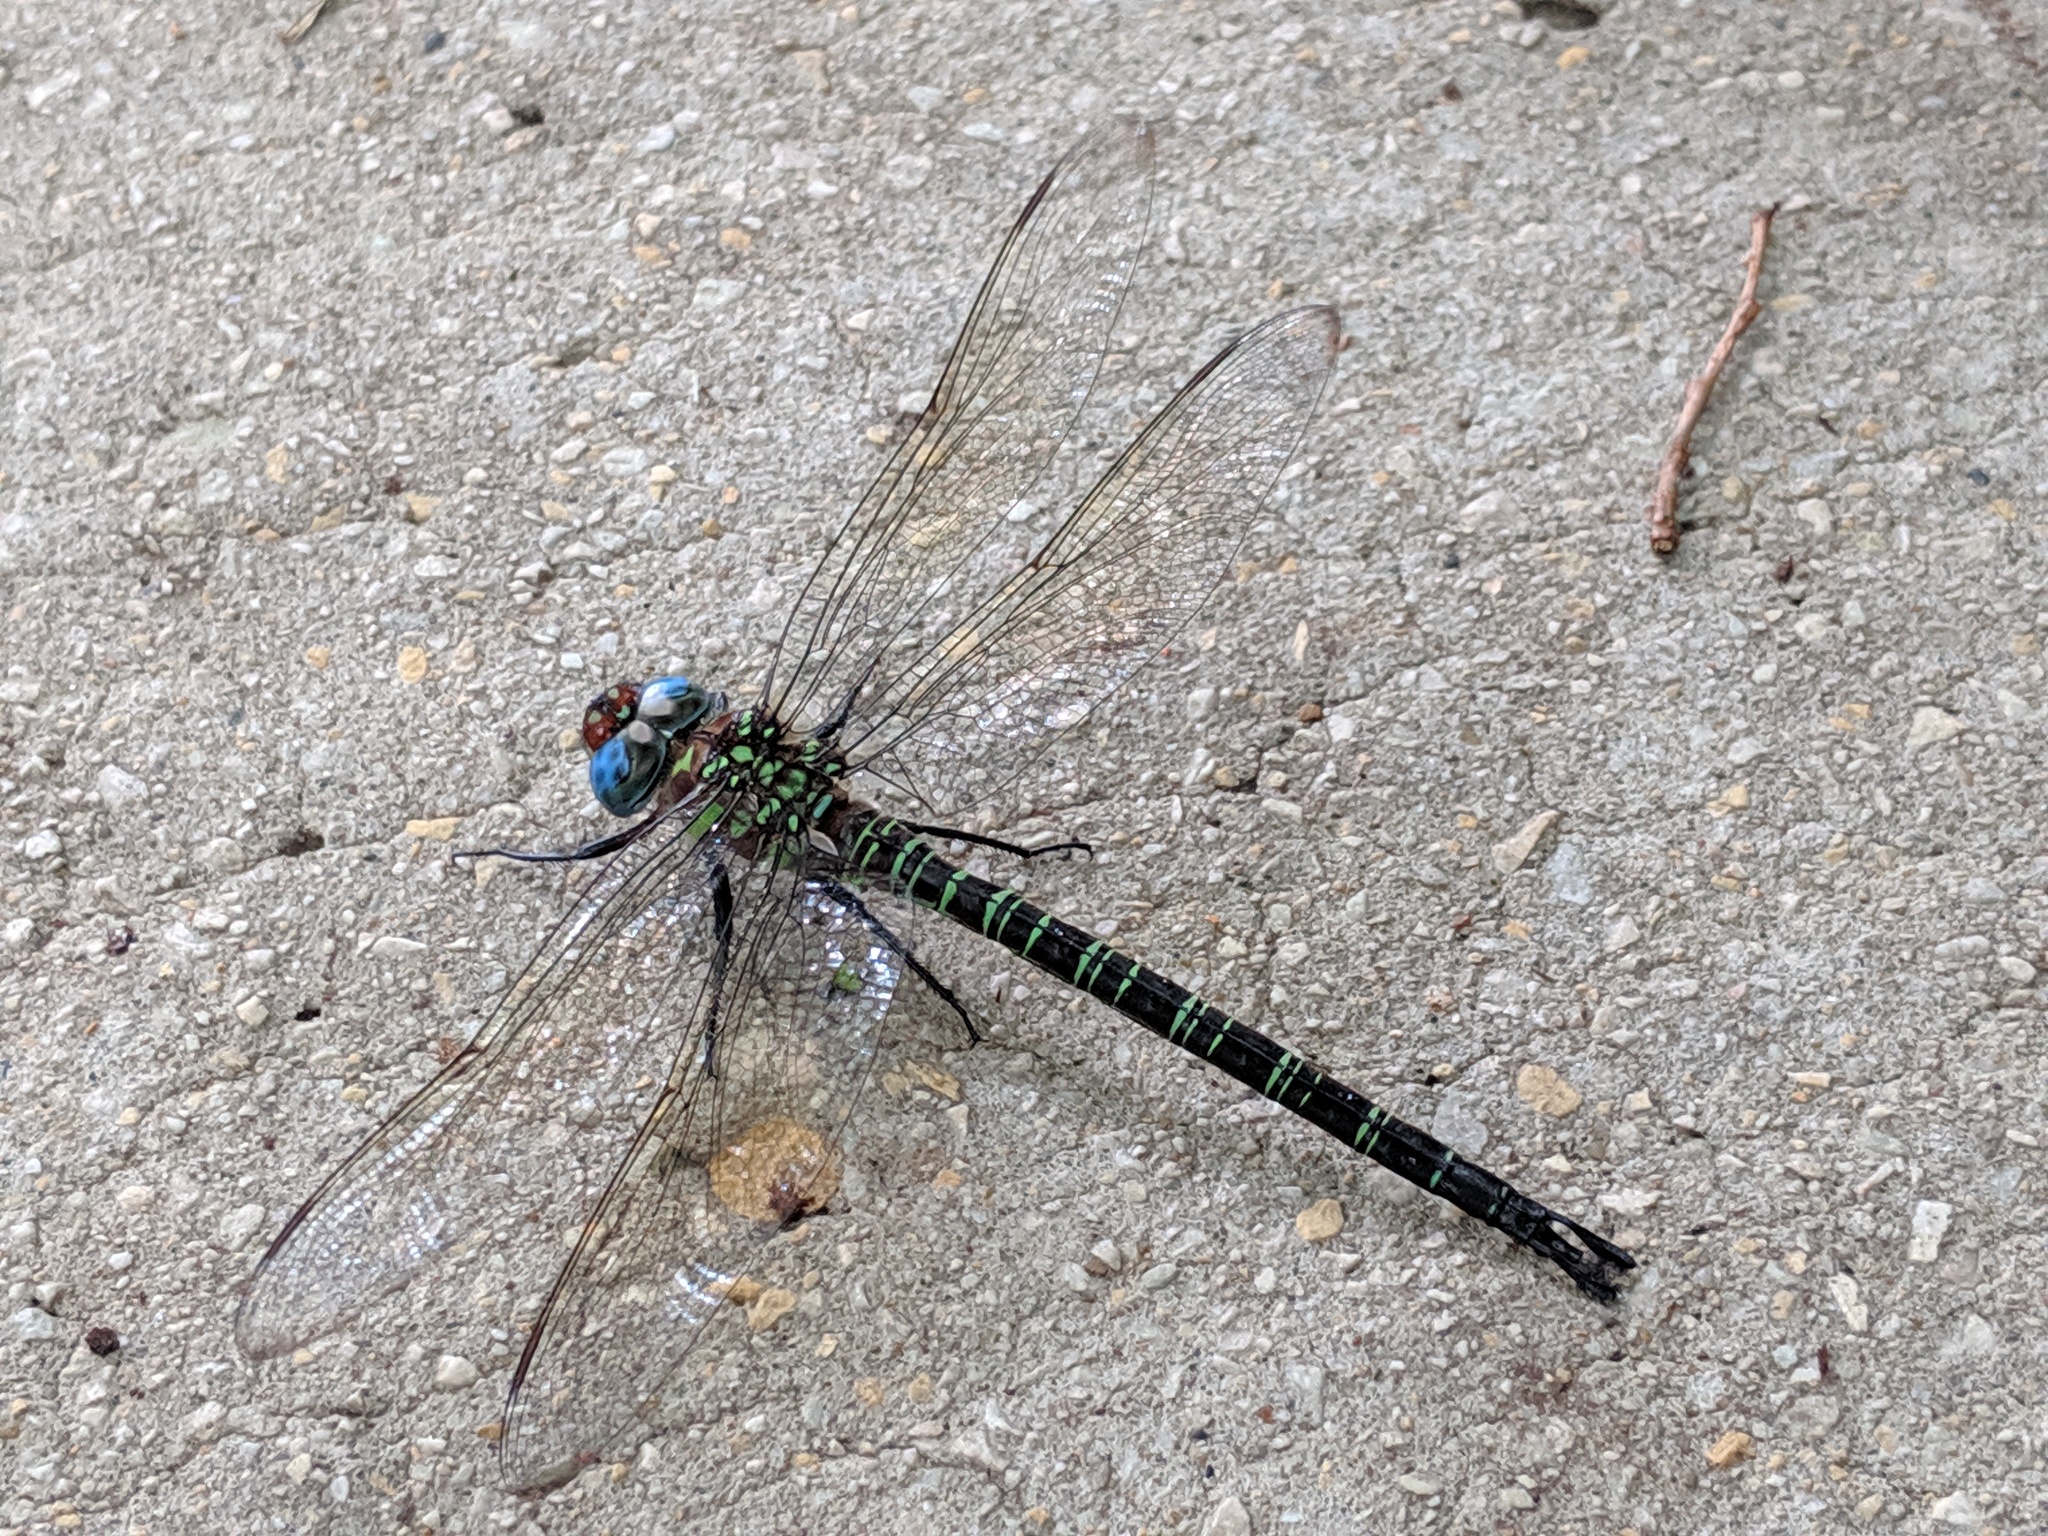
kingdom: Animalia
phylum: Arthropoda
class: Insecta
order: Odonata
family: Aeshnidae
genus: Epiaeschna
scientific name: Epiaeschna heros
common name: Swamp darner
